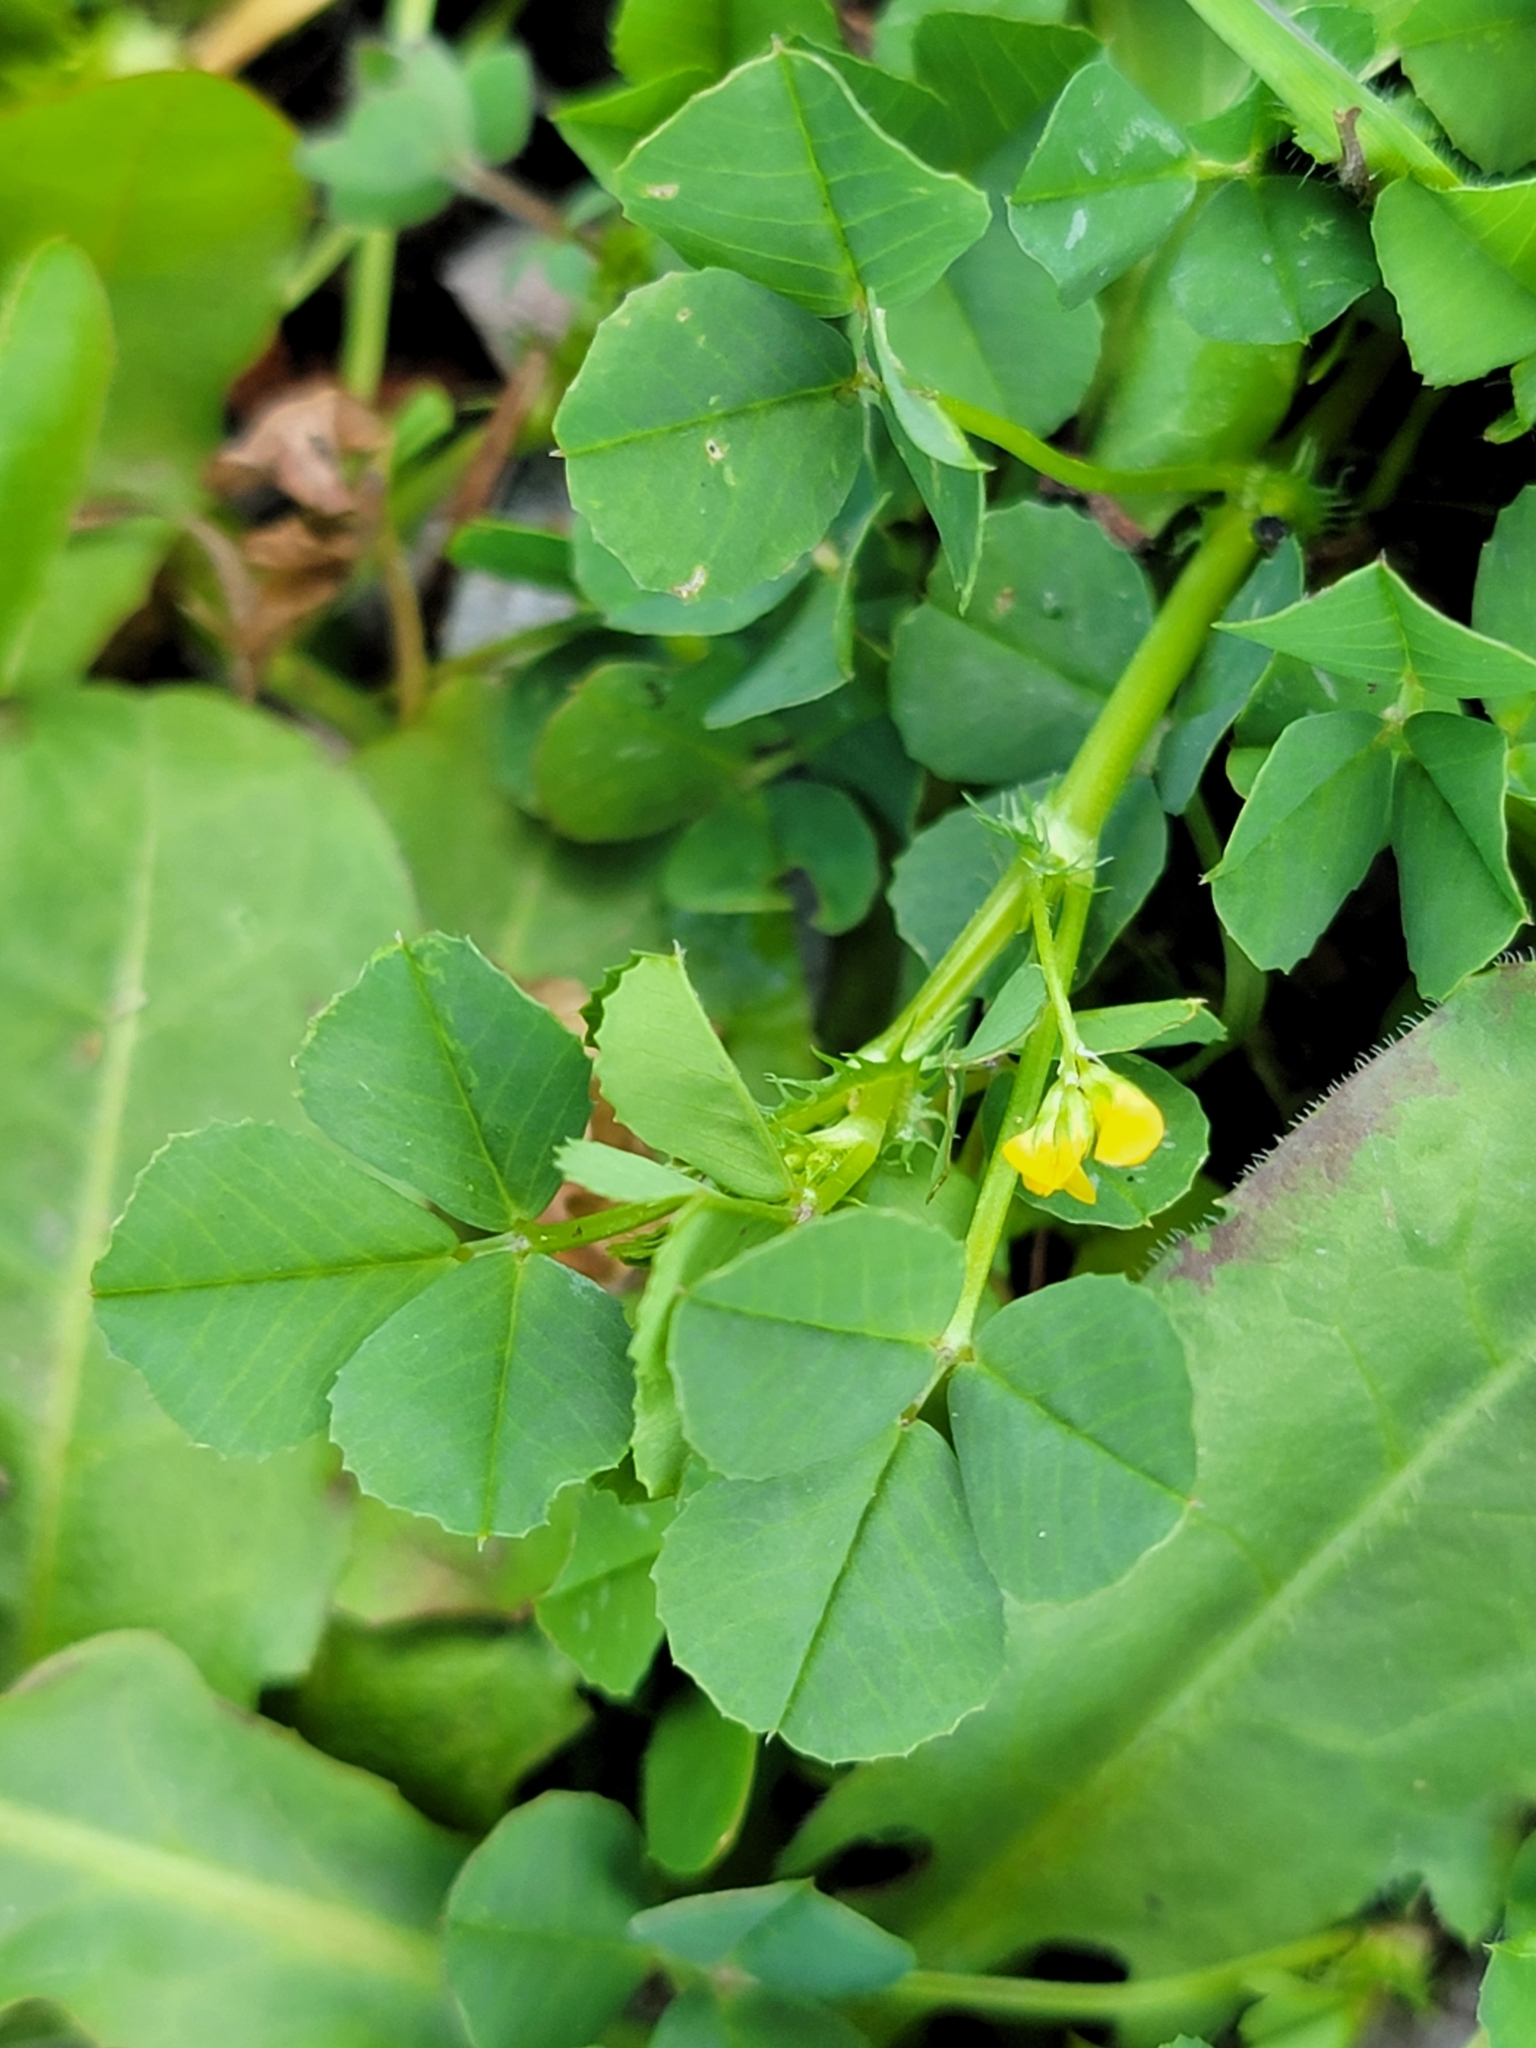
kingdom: Plantae
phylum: Tracheophyta
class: Magnoliopsida
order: Fabales
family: Fabaceae
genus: Medicago
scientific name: Medicago polymorpha
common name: Burclover
